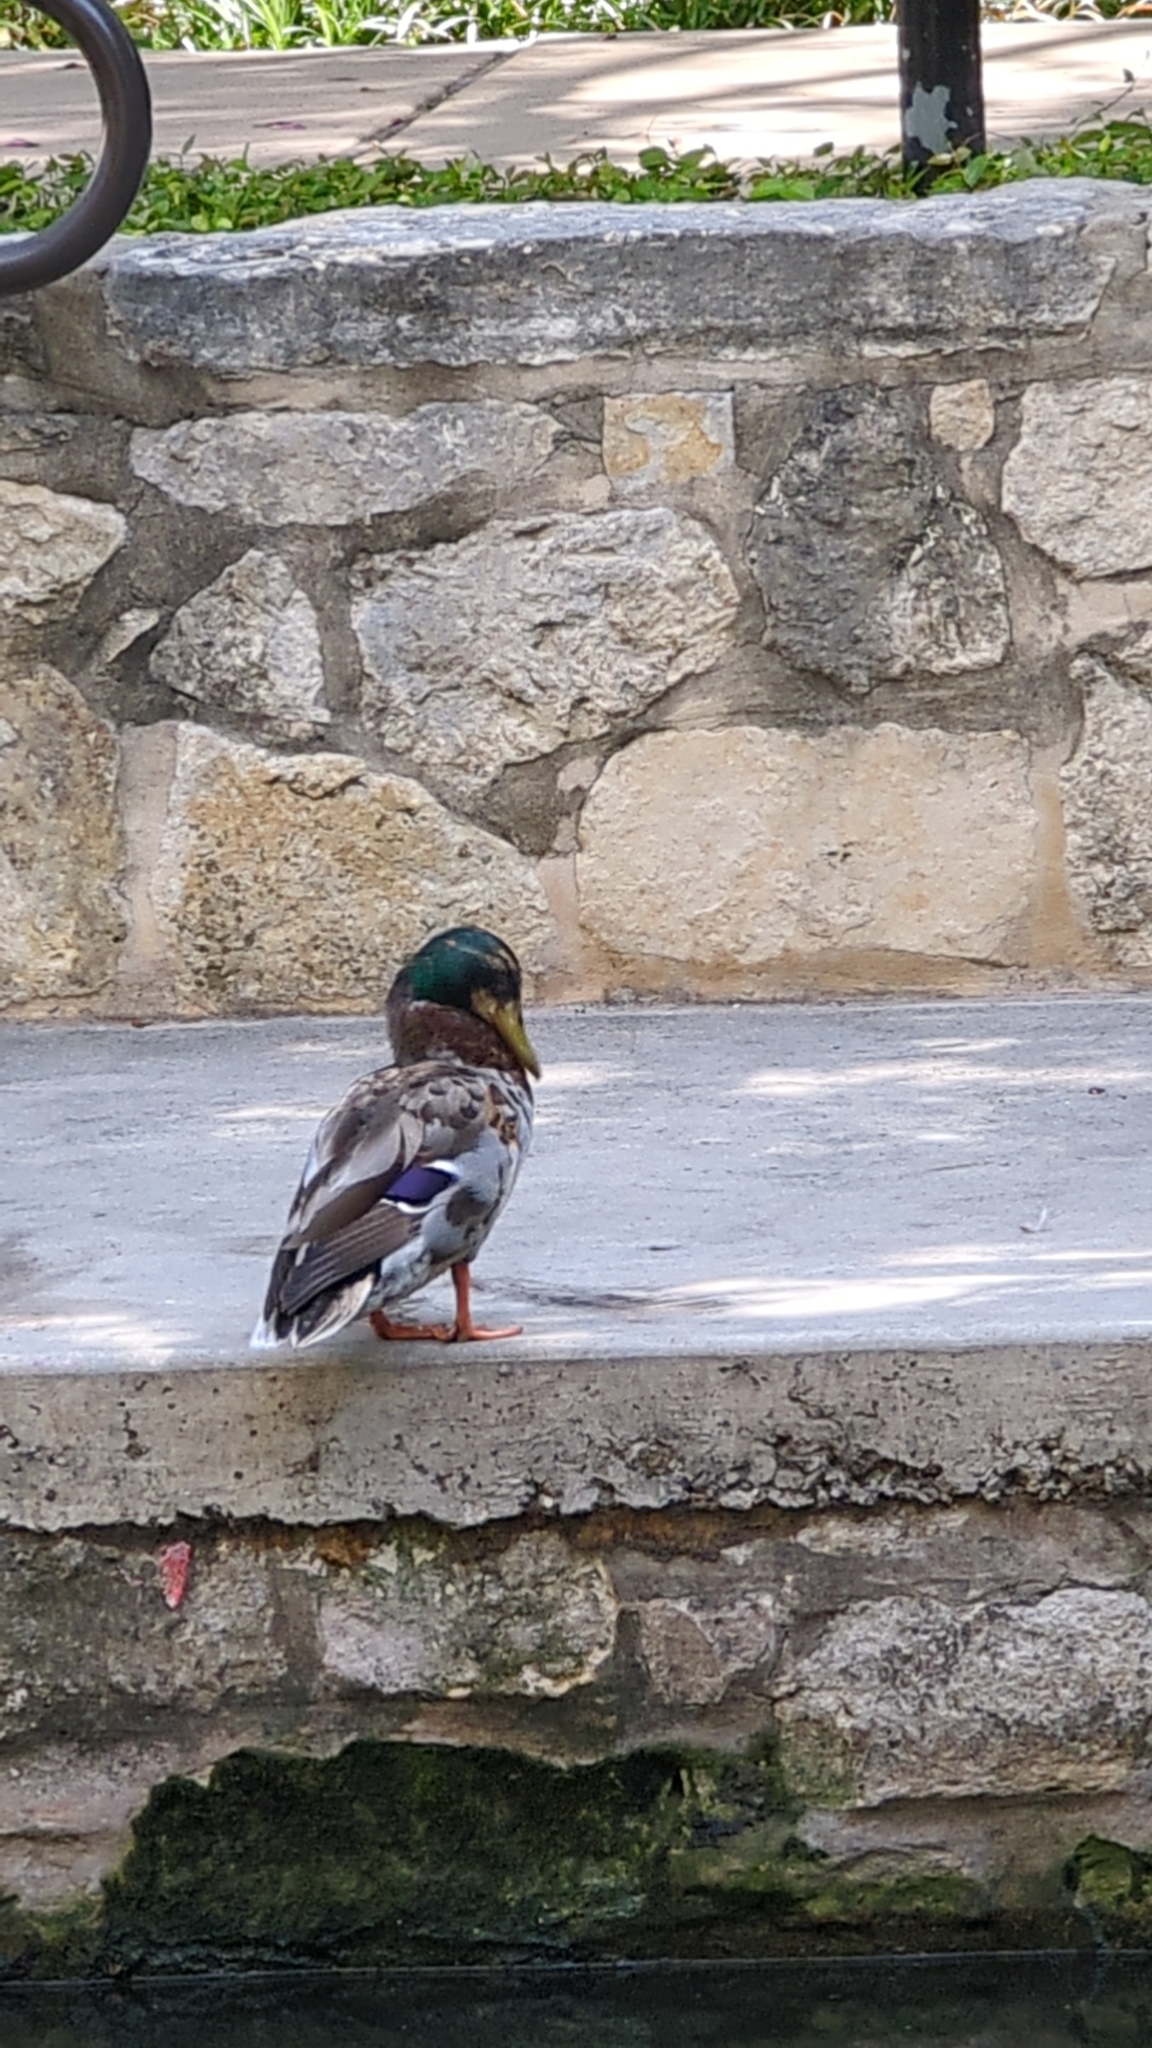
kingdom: Animalia
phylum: Chordata
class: Aves
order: Anseriformes
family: Anatidae
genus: Anas
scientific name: Anas platyrhynchos
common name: Mallard
